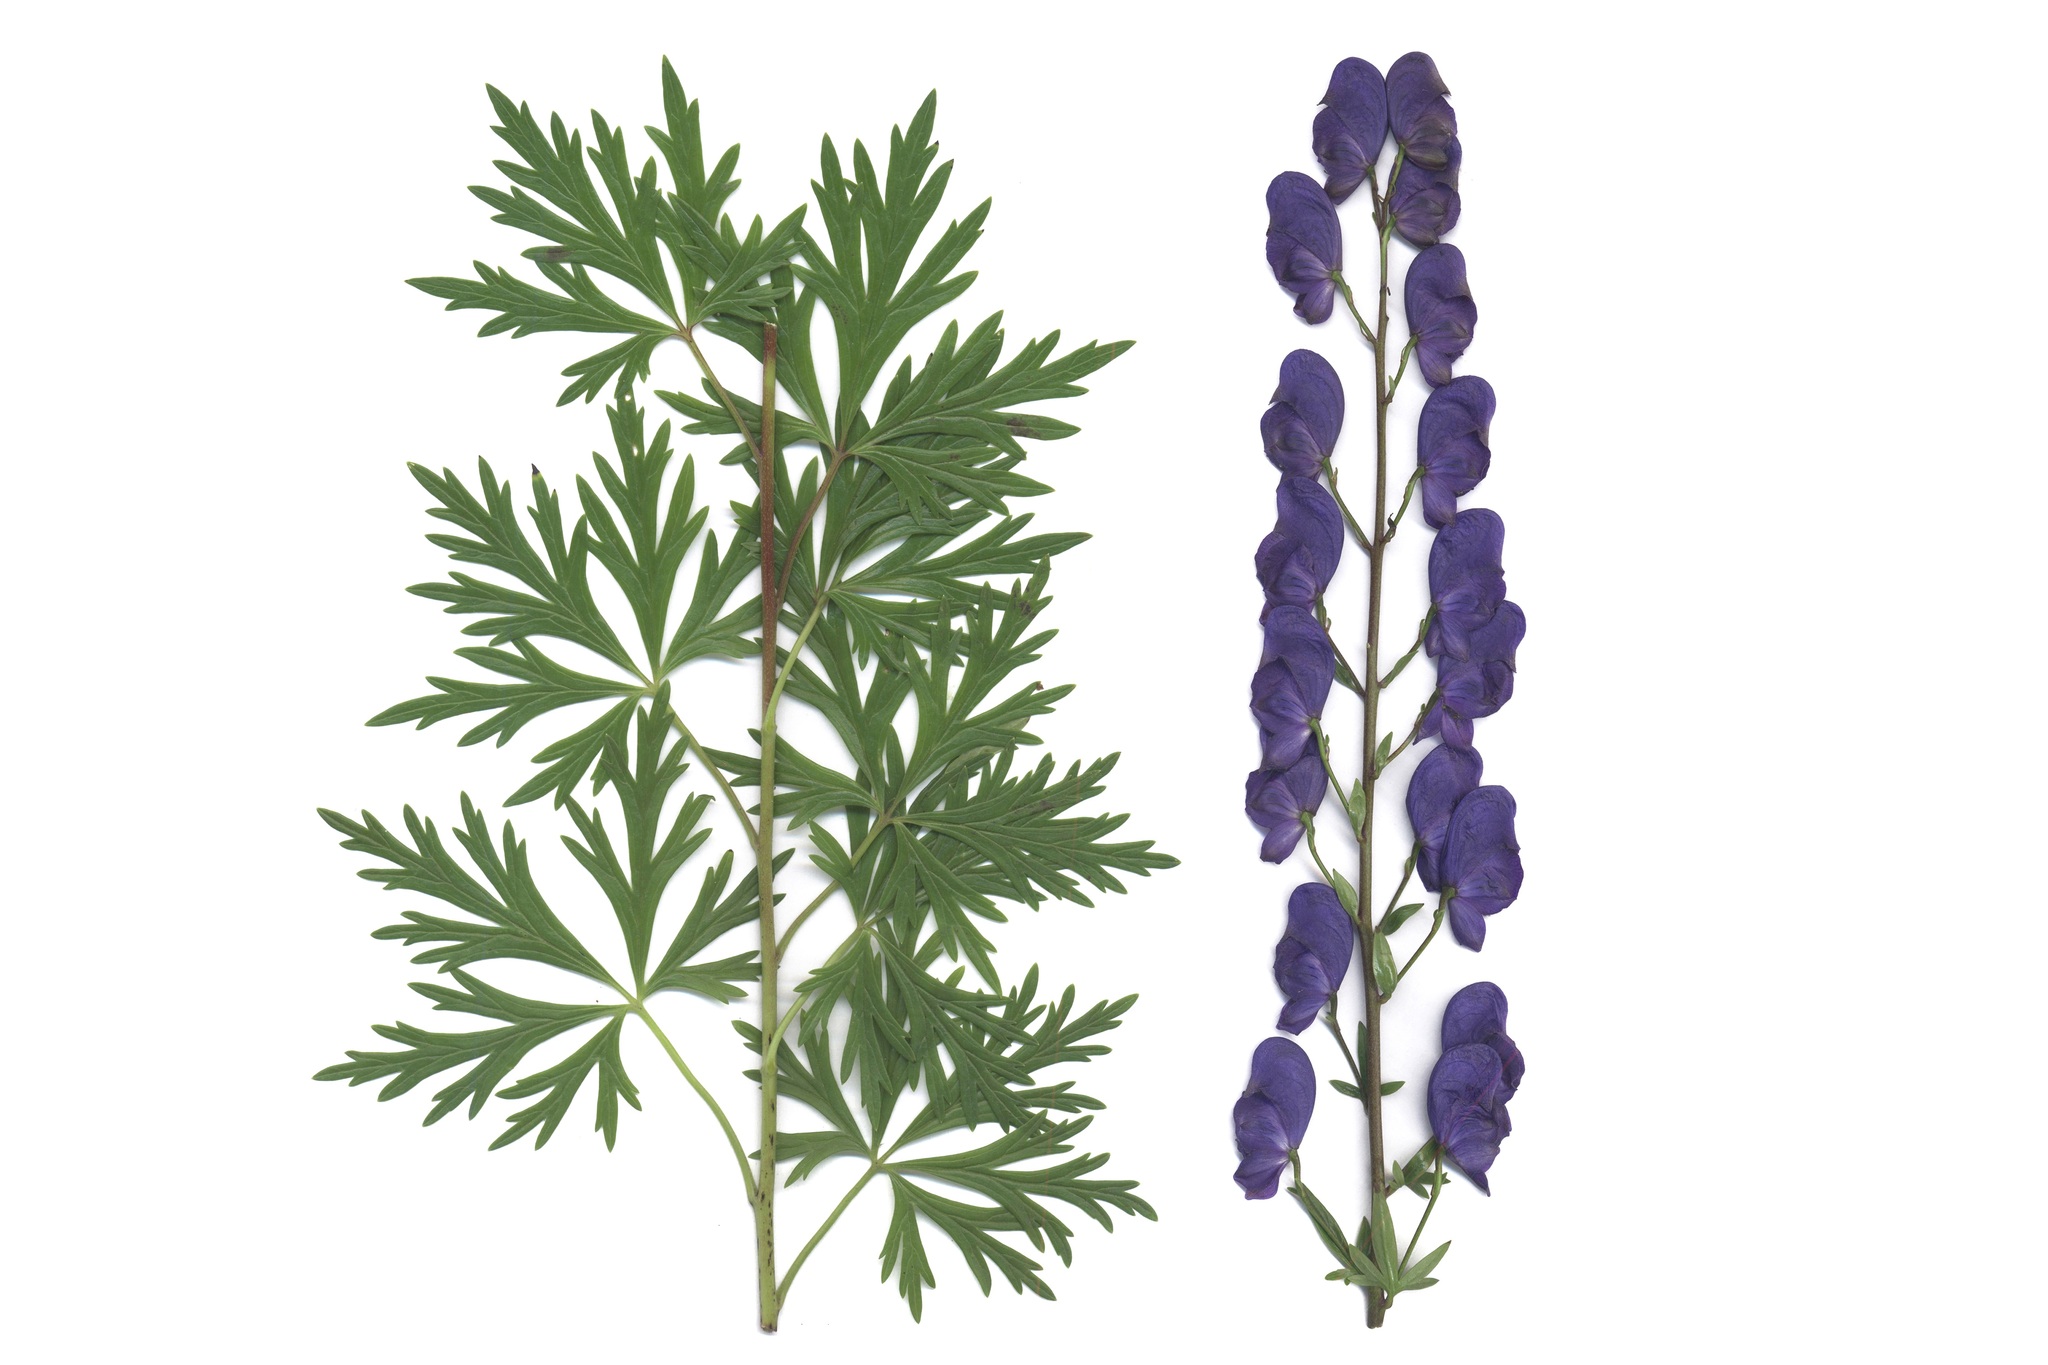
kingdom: Plantae
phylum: Tracheophyta
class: Magnoliopsida
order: Ranunculales
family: Ranunculaceae
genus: Aconitum
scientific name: Aconitum cammarum
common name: Hybrid monk's-hood
